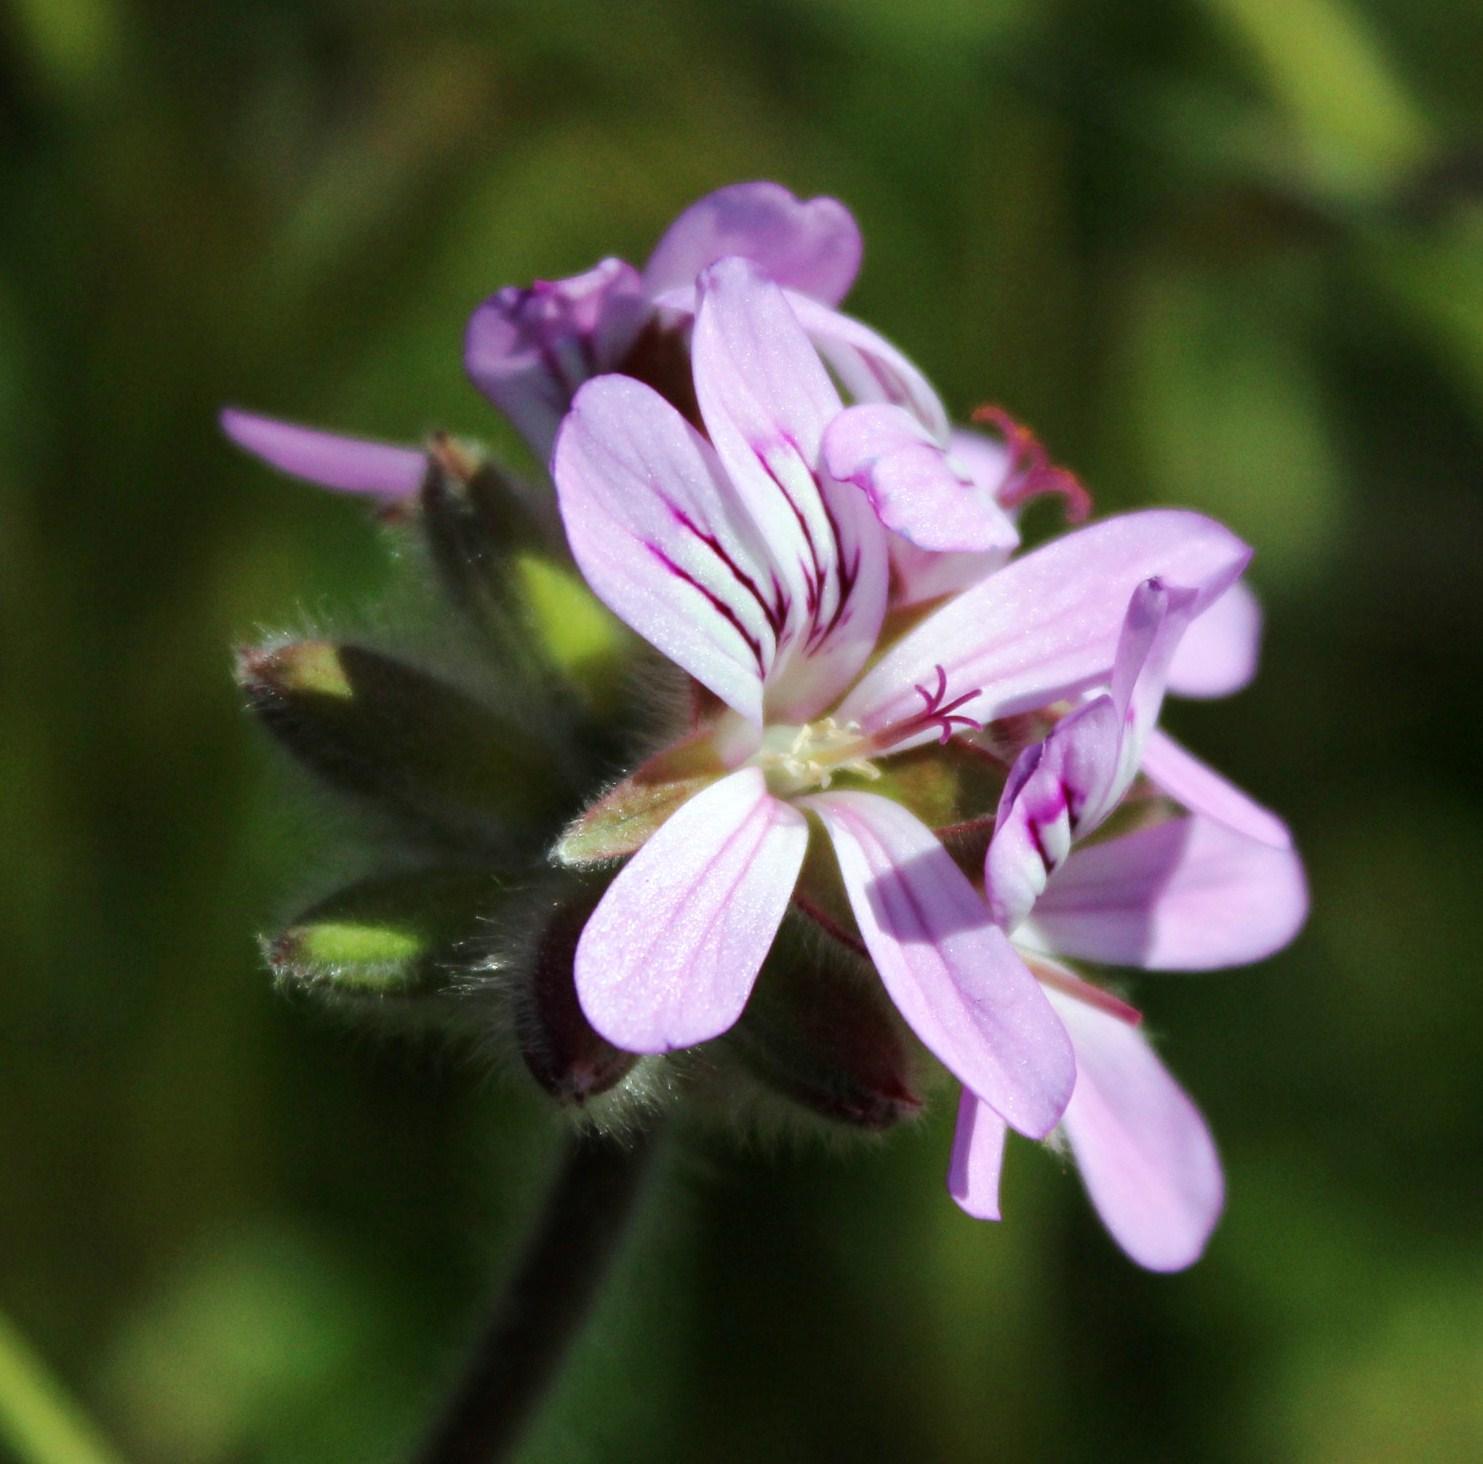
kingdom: Plantae
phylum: Tracheophyta
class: Magnoliopsida
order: Geraniales
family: Geraniaceae
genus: Pelargonium
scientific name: Pelargonium capitatum
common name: Rose scented geranium
